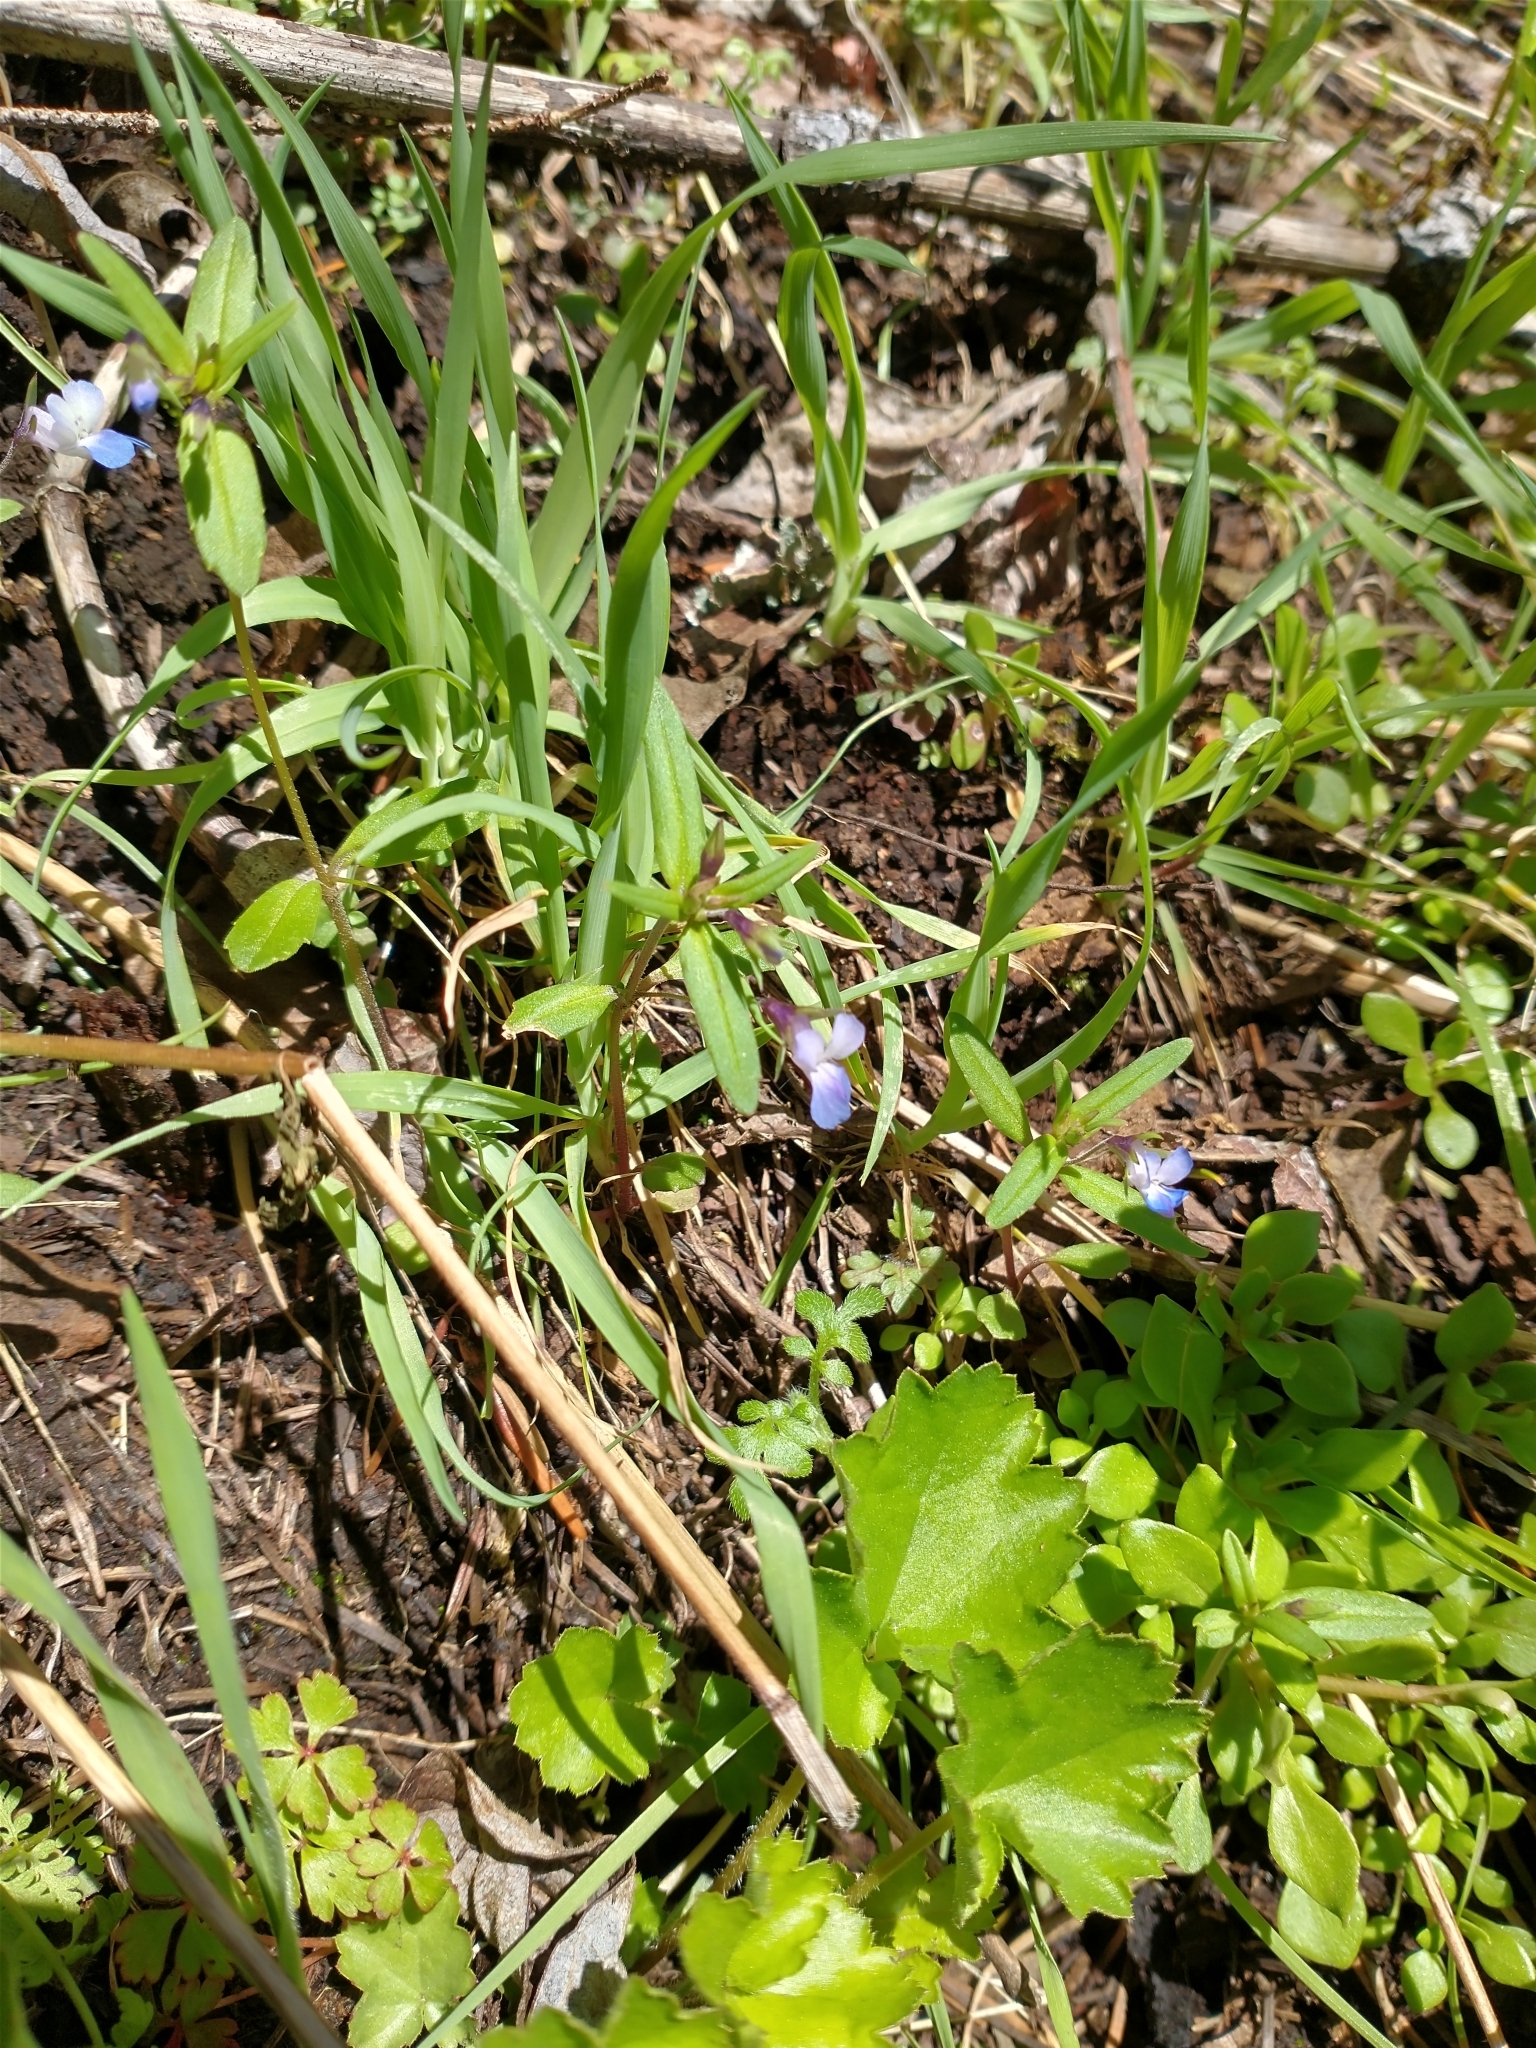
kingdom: Plantae
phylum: Tracheophyta
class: Magnoliopsida
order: Lamiales
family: Plantaginaceae
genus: Collinsia
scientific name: Collinsia parviflora
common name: Blue-lips
